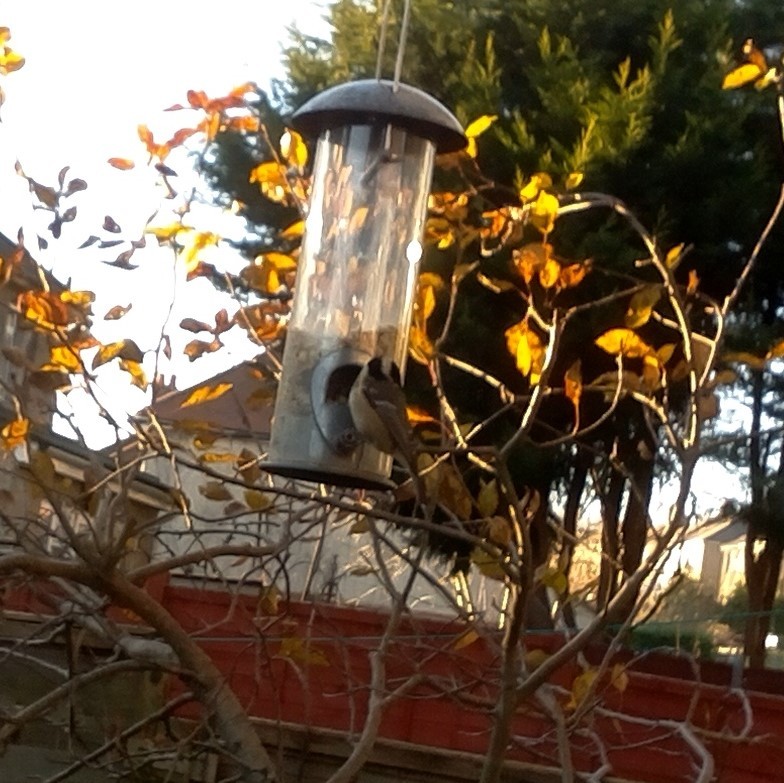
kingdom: Animalia
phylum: Chordata
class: Aves
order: Passeriformes
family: Paridae
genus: Periparus
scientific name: Periparus ater
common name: Coal tit
